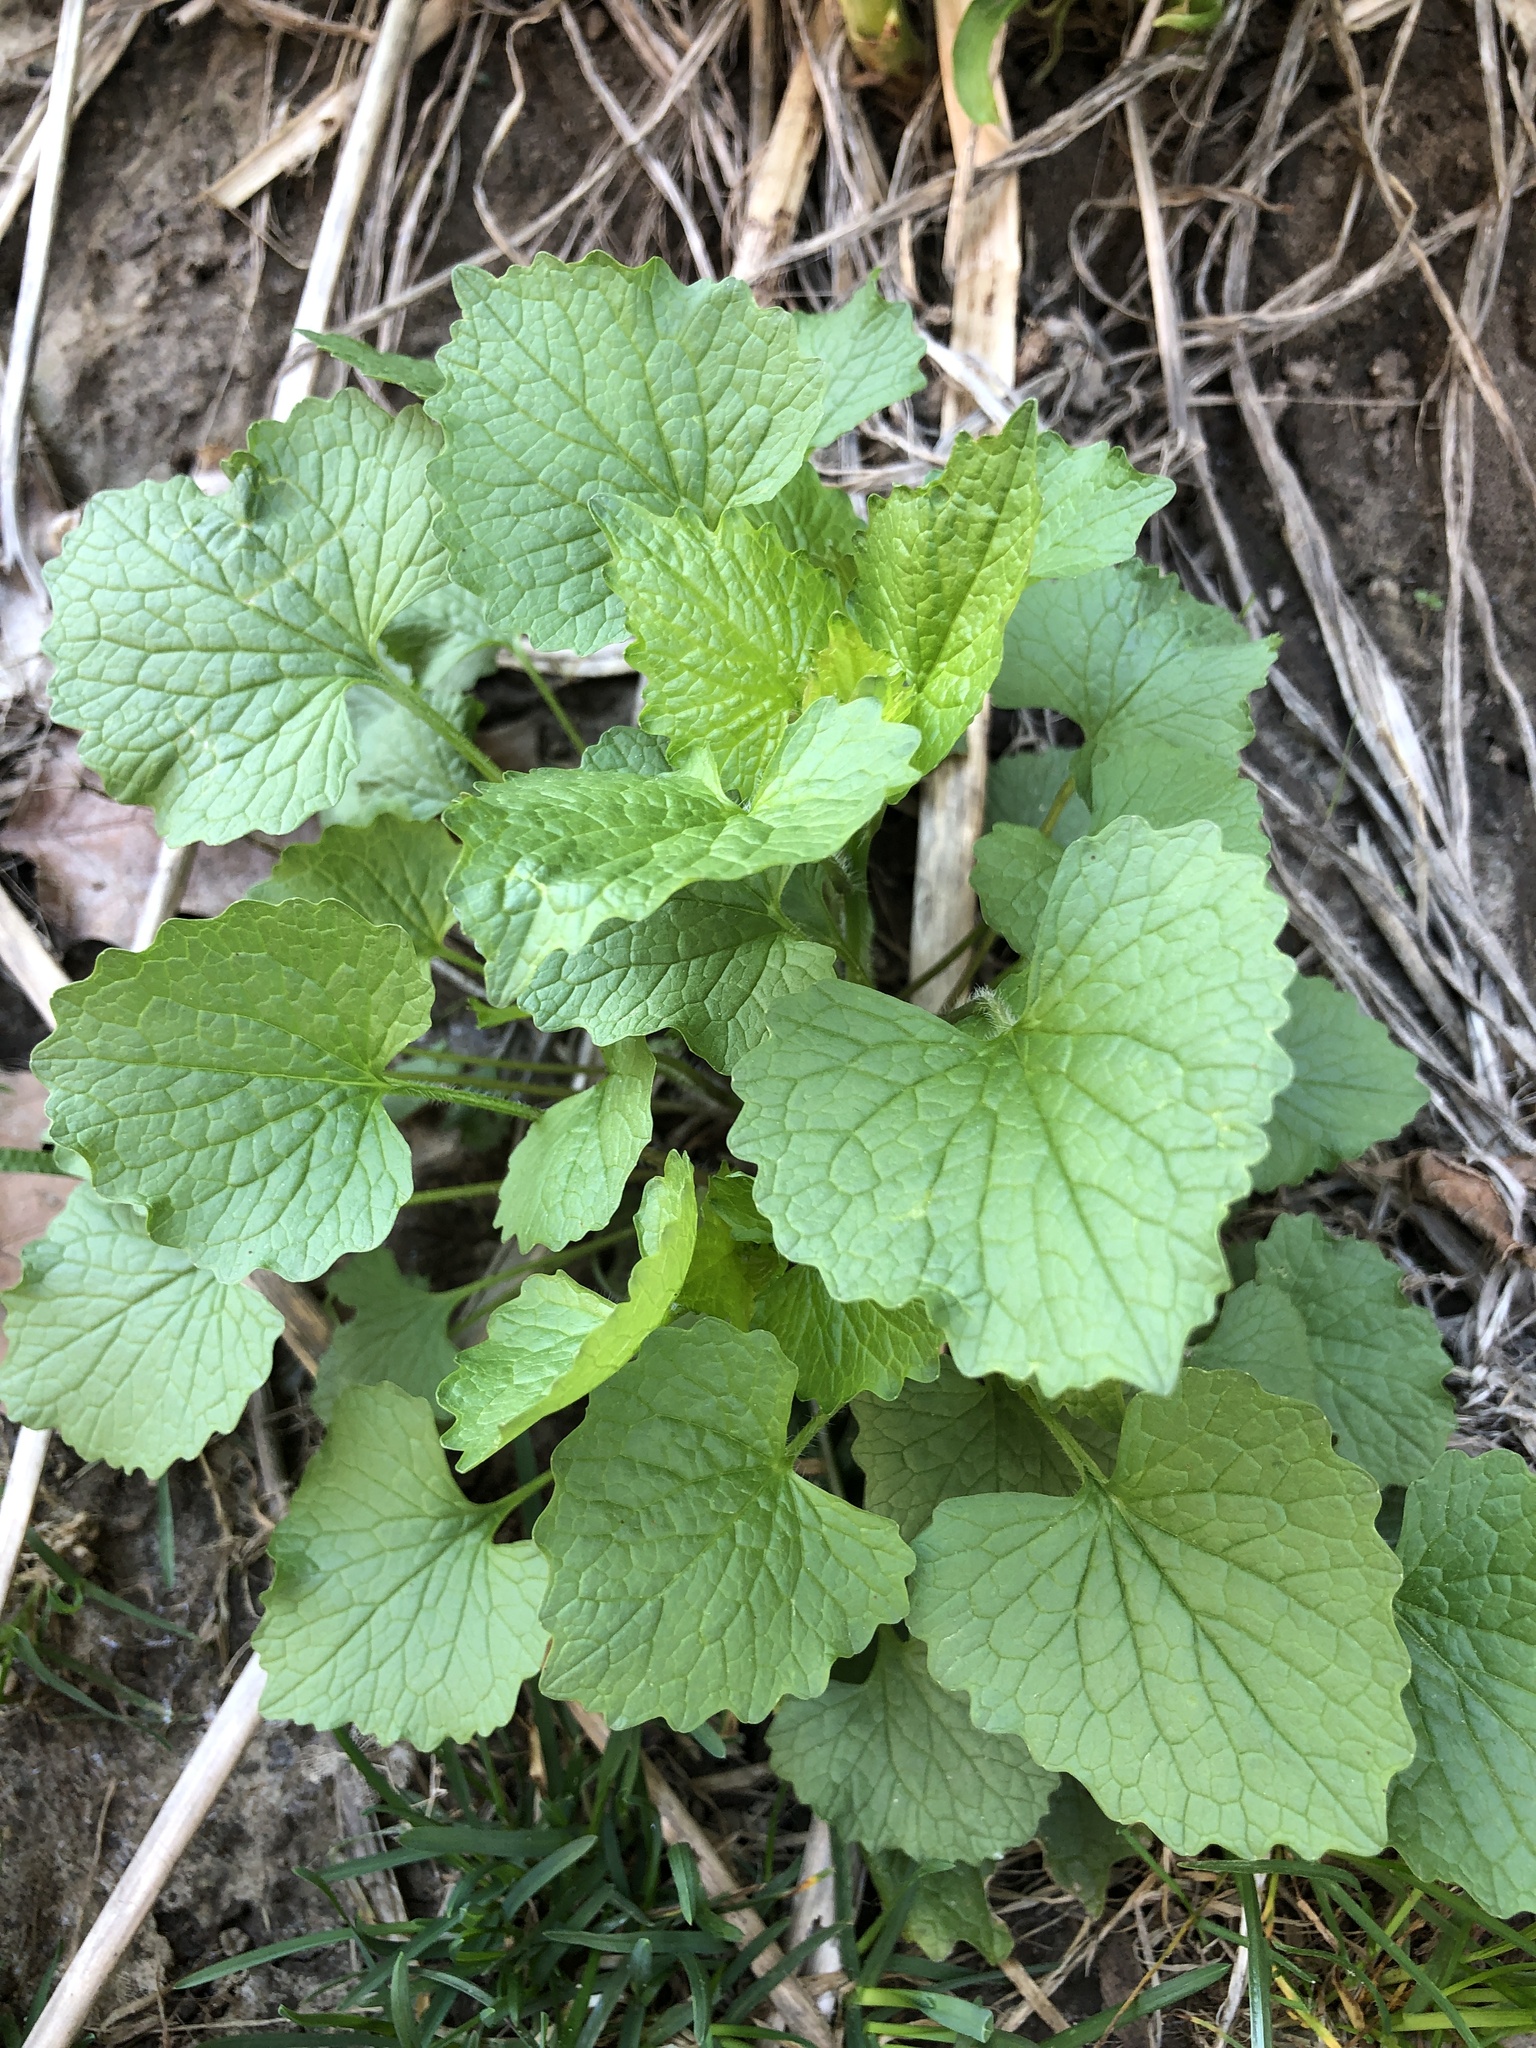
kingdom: Plantae
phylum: Tracheophyta
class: Magnoliopsida
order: Brassicales
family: Brassicaceae
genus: Alliaria
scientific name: Alliaria petiolata
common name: Garlic mustard
